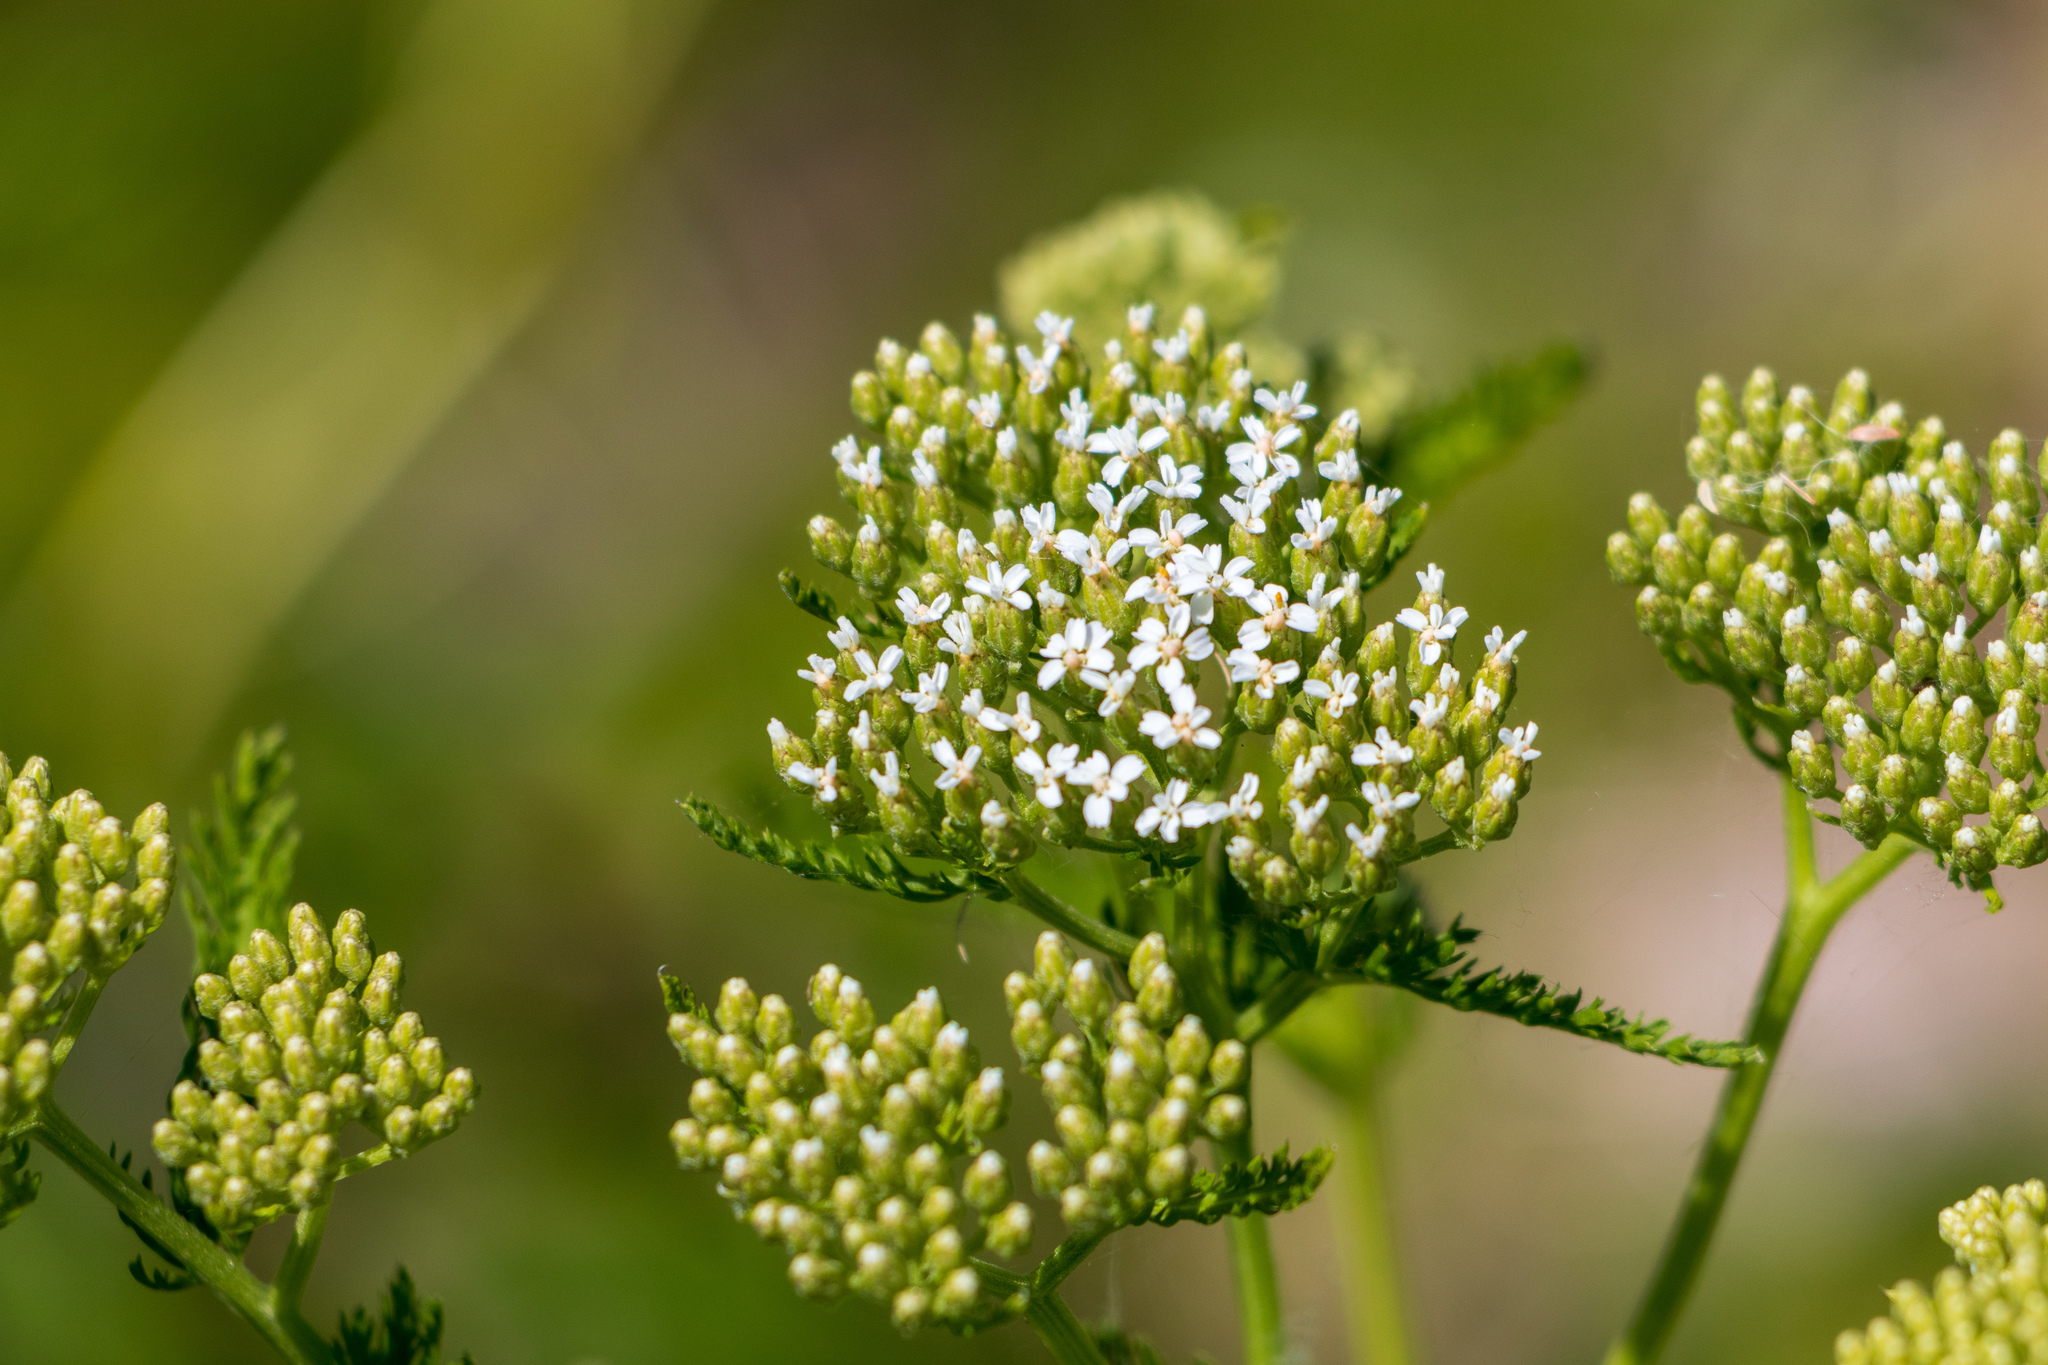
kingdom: Plantae
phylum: Tracheophyta
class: Magnoliopsida
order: Asterales
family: Asteraceae
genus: Achillea
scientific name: Achillea millefolium
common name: Yarrow
